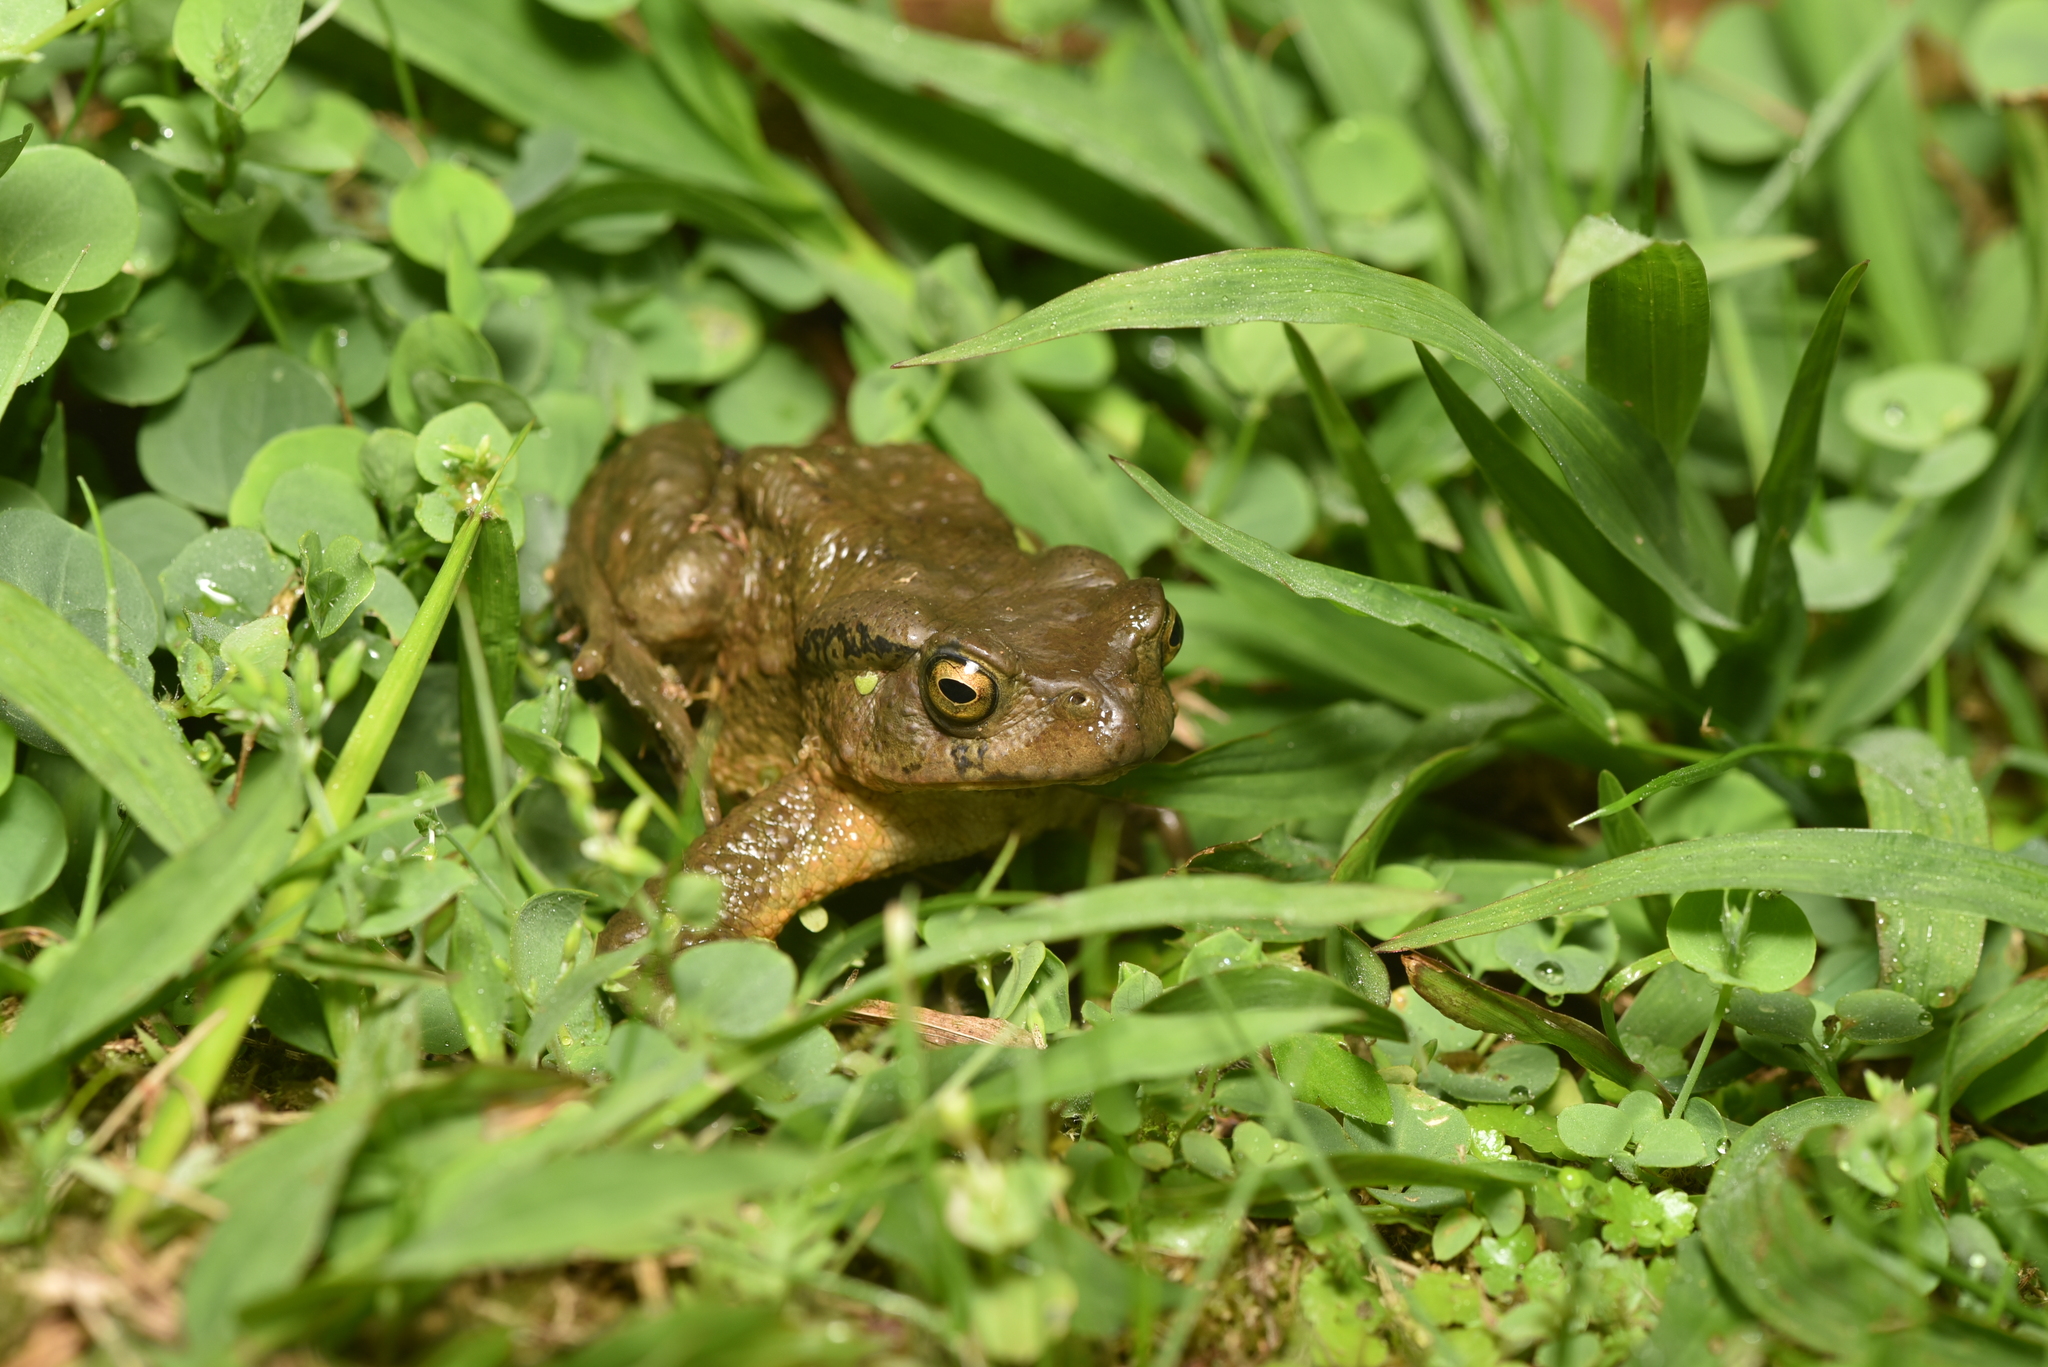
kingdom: Animalia
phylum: Chordata
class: Amphibia
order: Anura
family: Bufonidae
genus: Bufo
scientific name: Bufo bankorensis
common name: Bankor toad
